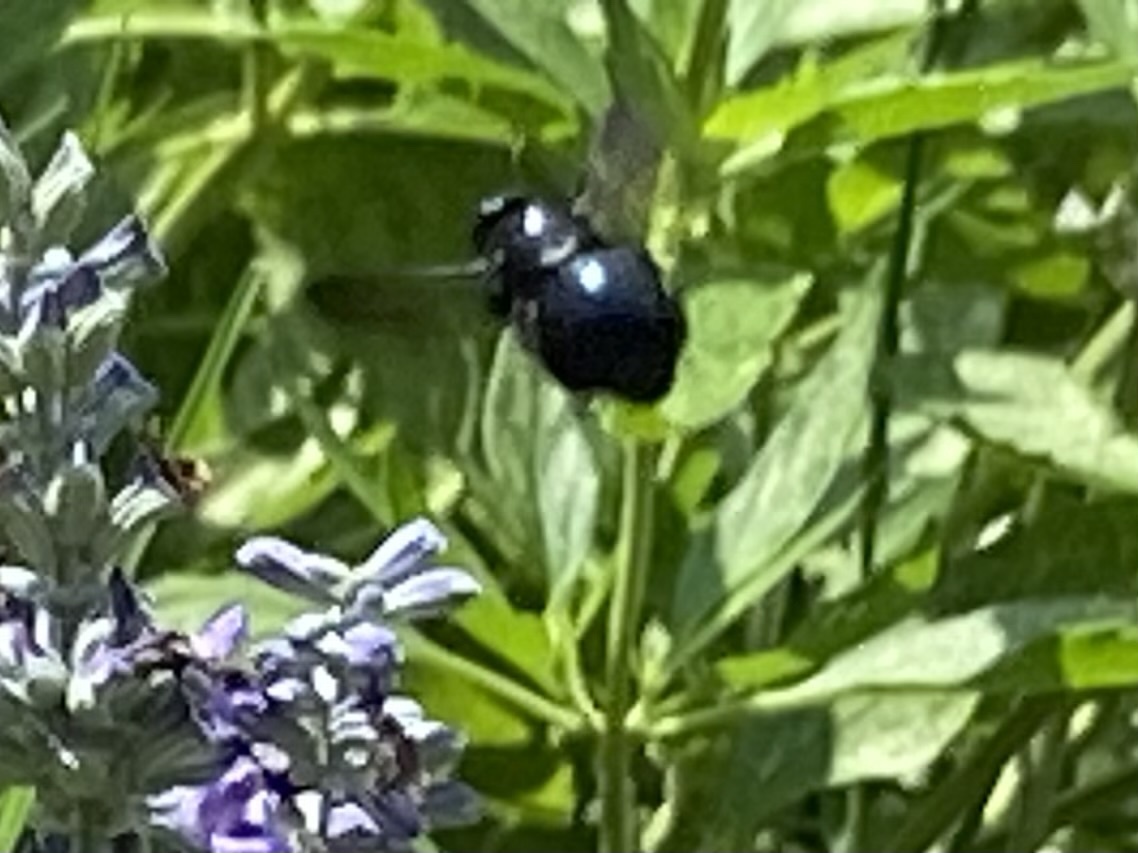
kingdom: Animalia
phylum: Arthropoda
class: Insecta
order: Hymenoptera
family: Apidae
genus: Xylocopa
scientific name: Xylocopa micans
